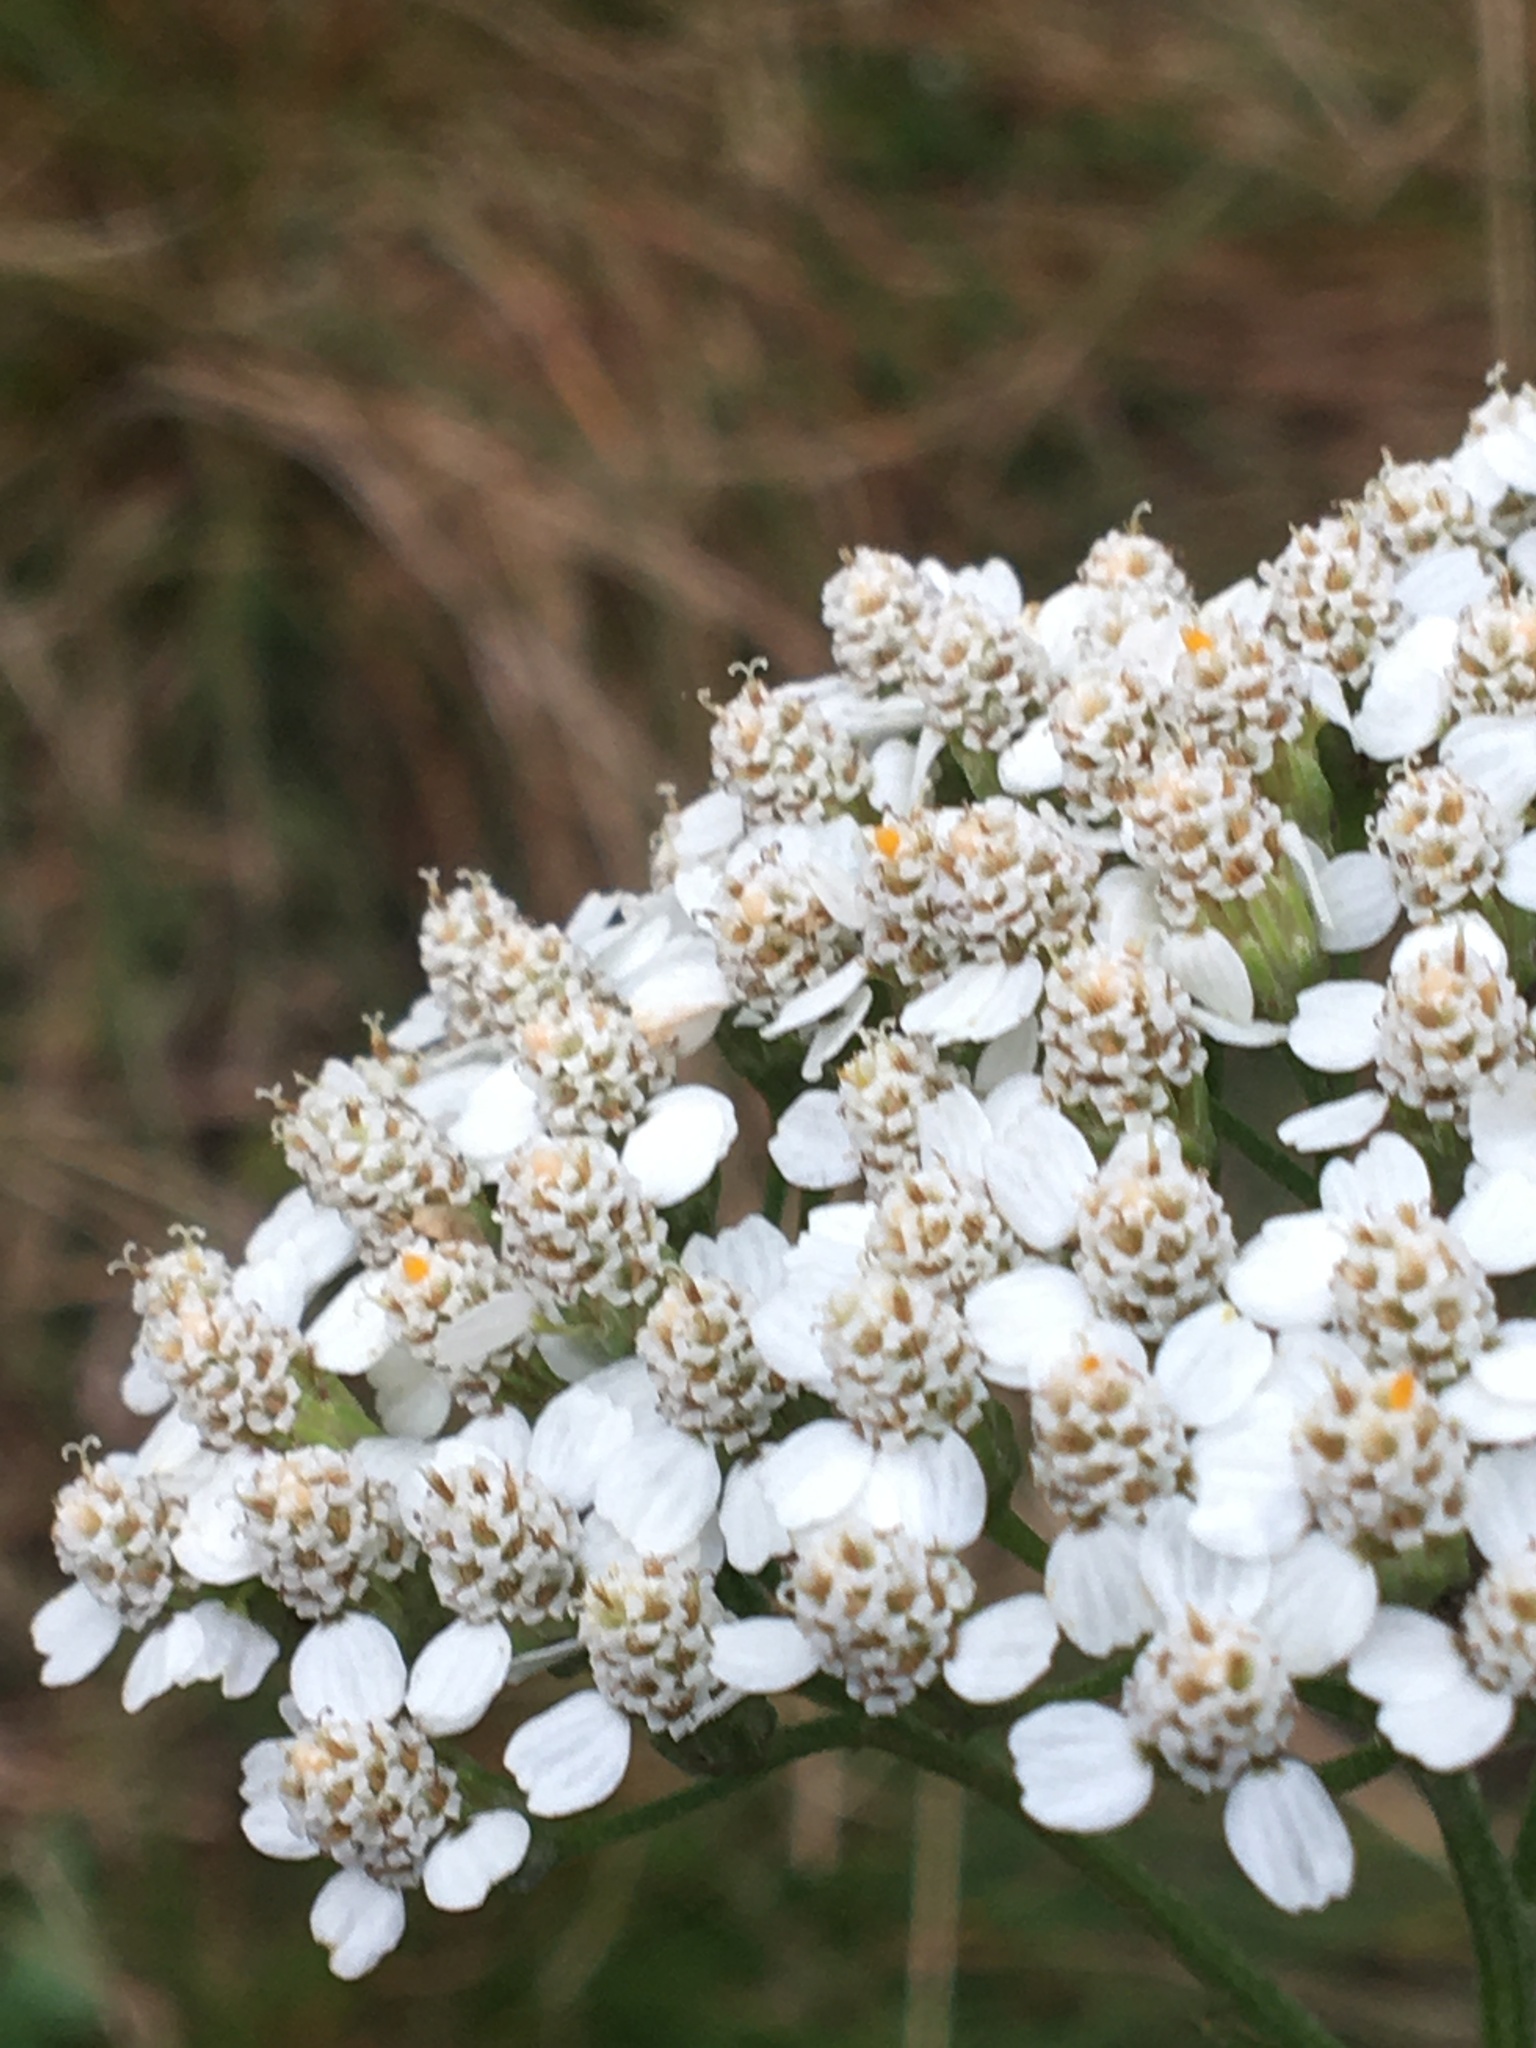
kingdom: Plantae
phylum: Tracheophyta
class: Magnoliopsida
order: Asterales
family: Asteraceae
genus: Achillea
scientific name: Achillea millefolium
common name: Yarrow
